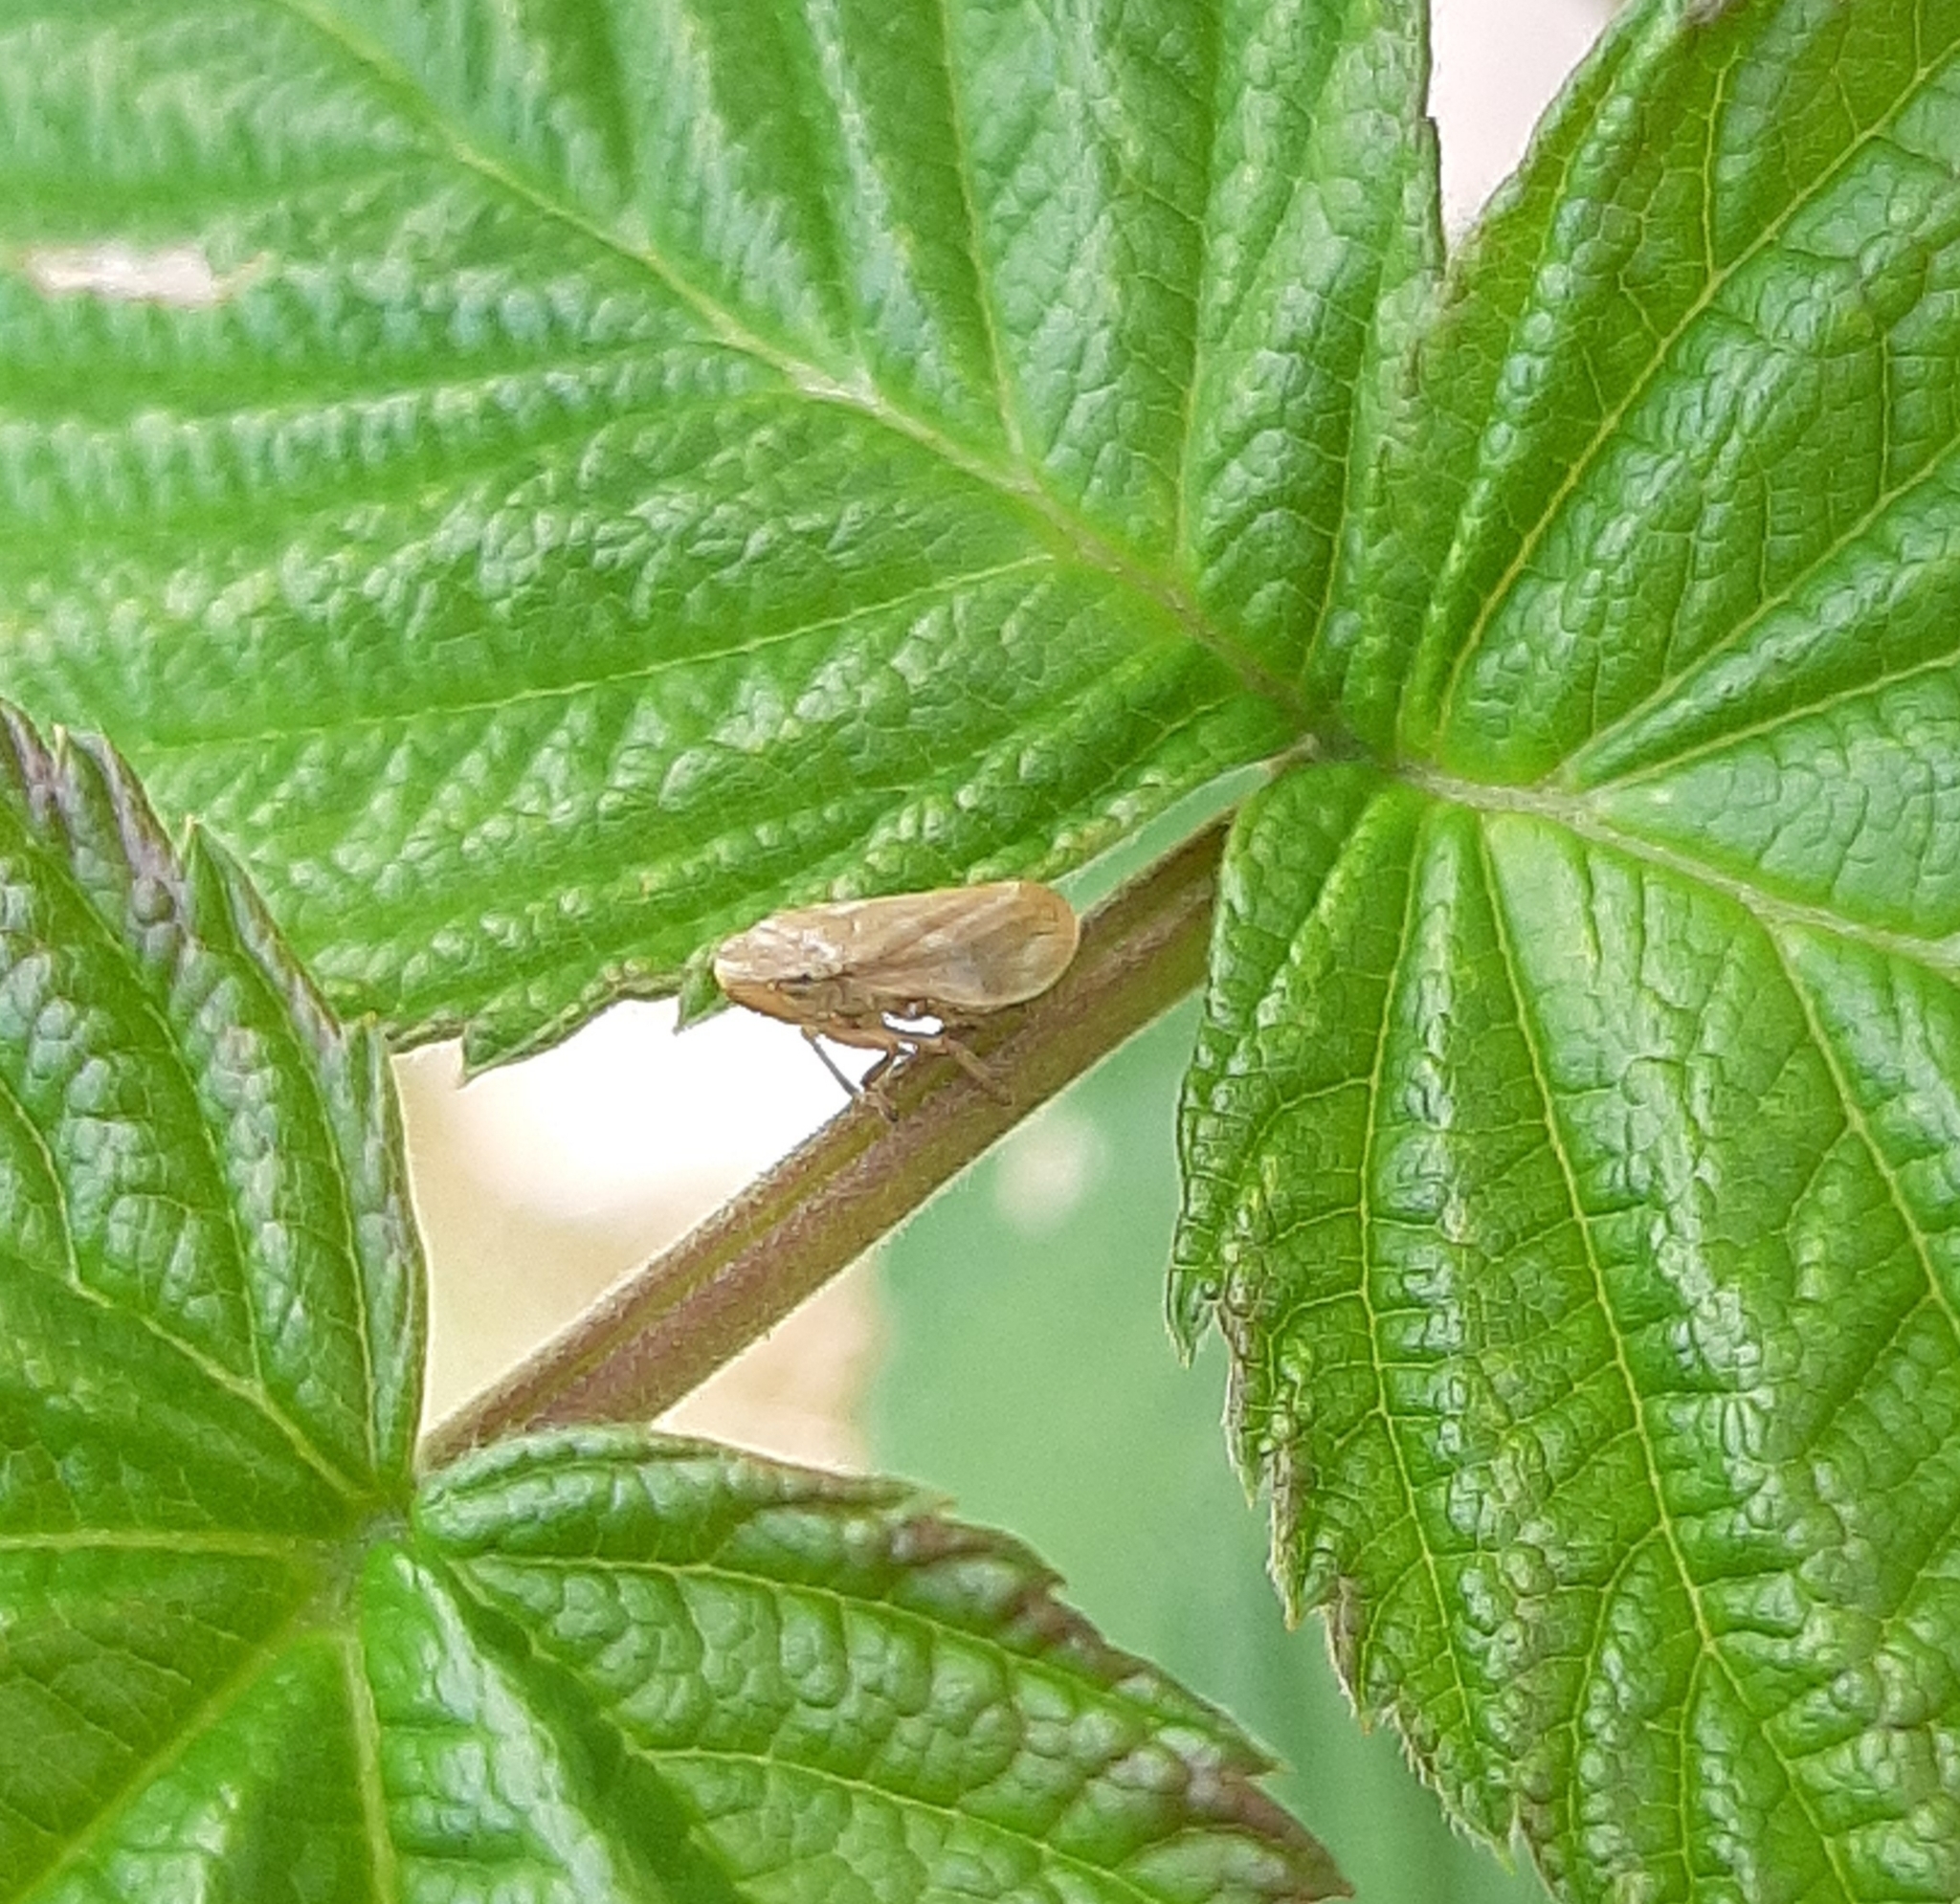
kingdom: Animalia
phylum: Arthropoda
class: Insecta
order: Hemiptera
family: Aphrophoridae
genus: Philaenus
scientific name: Philaenus spumarius
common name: Meadow spittlebug
